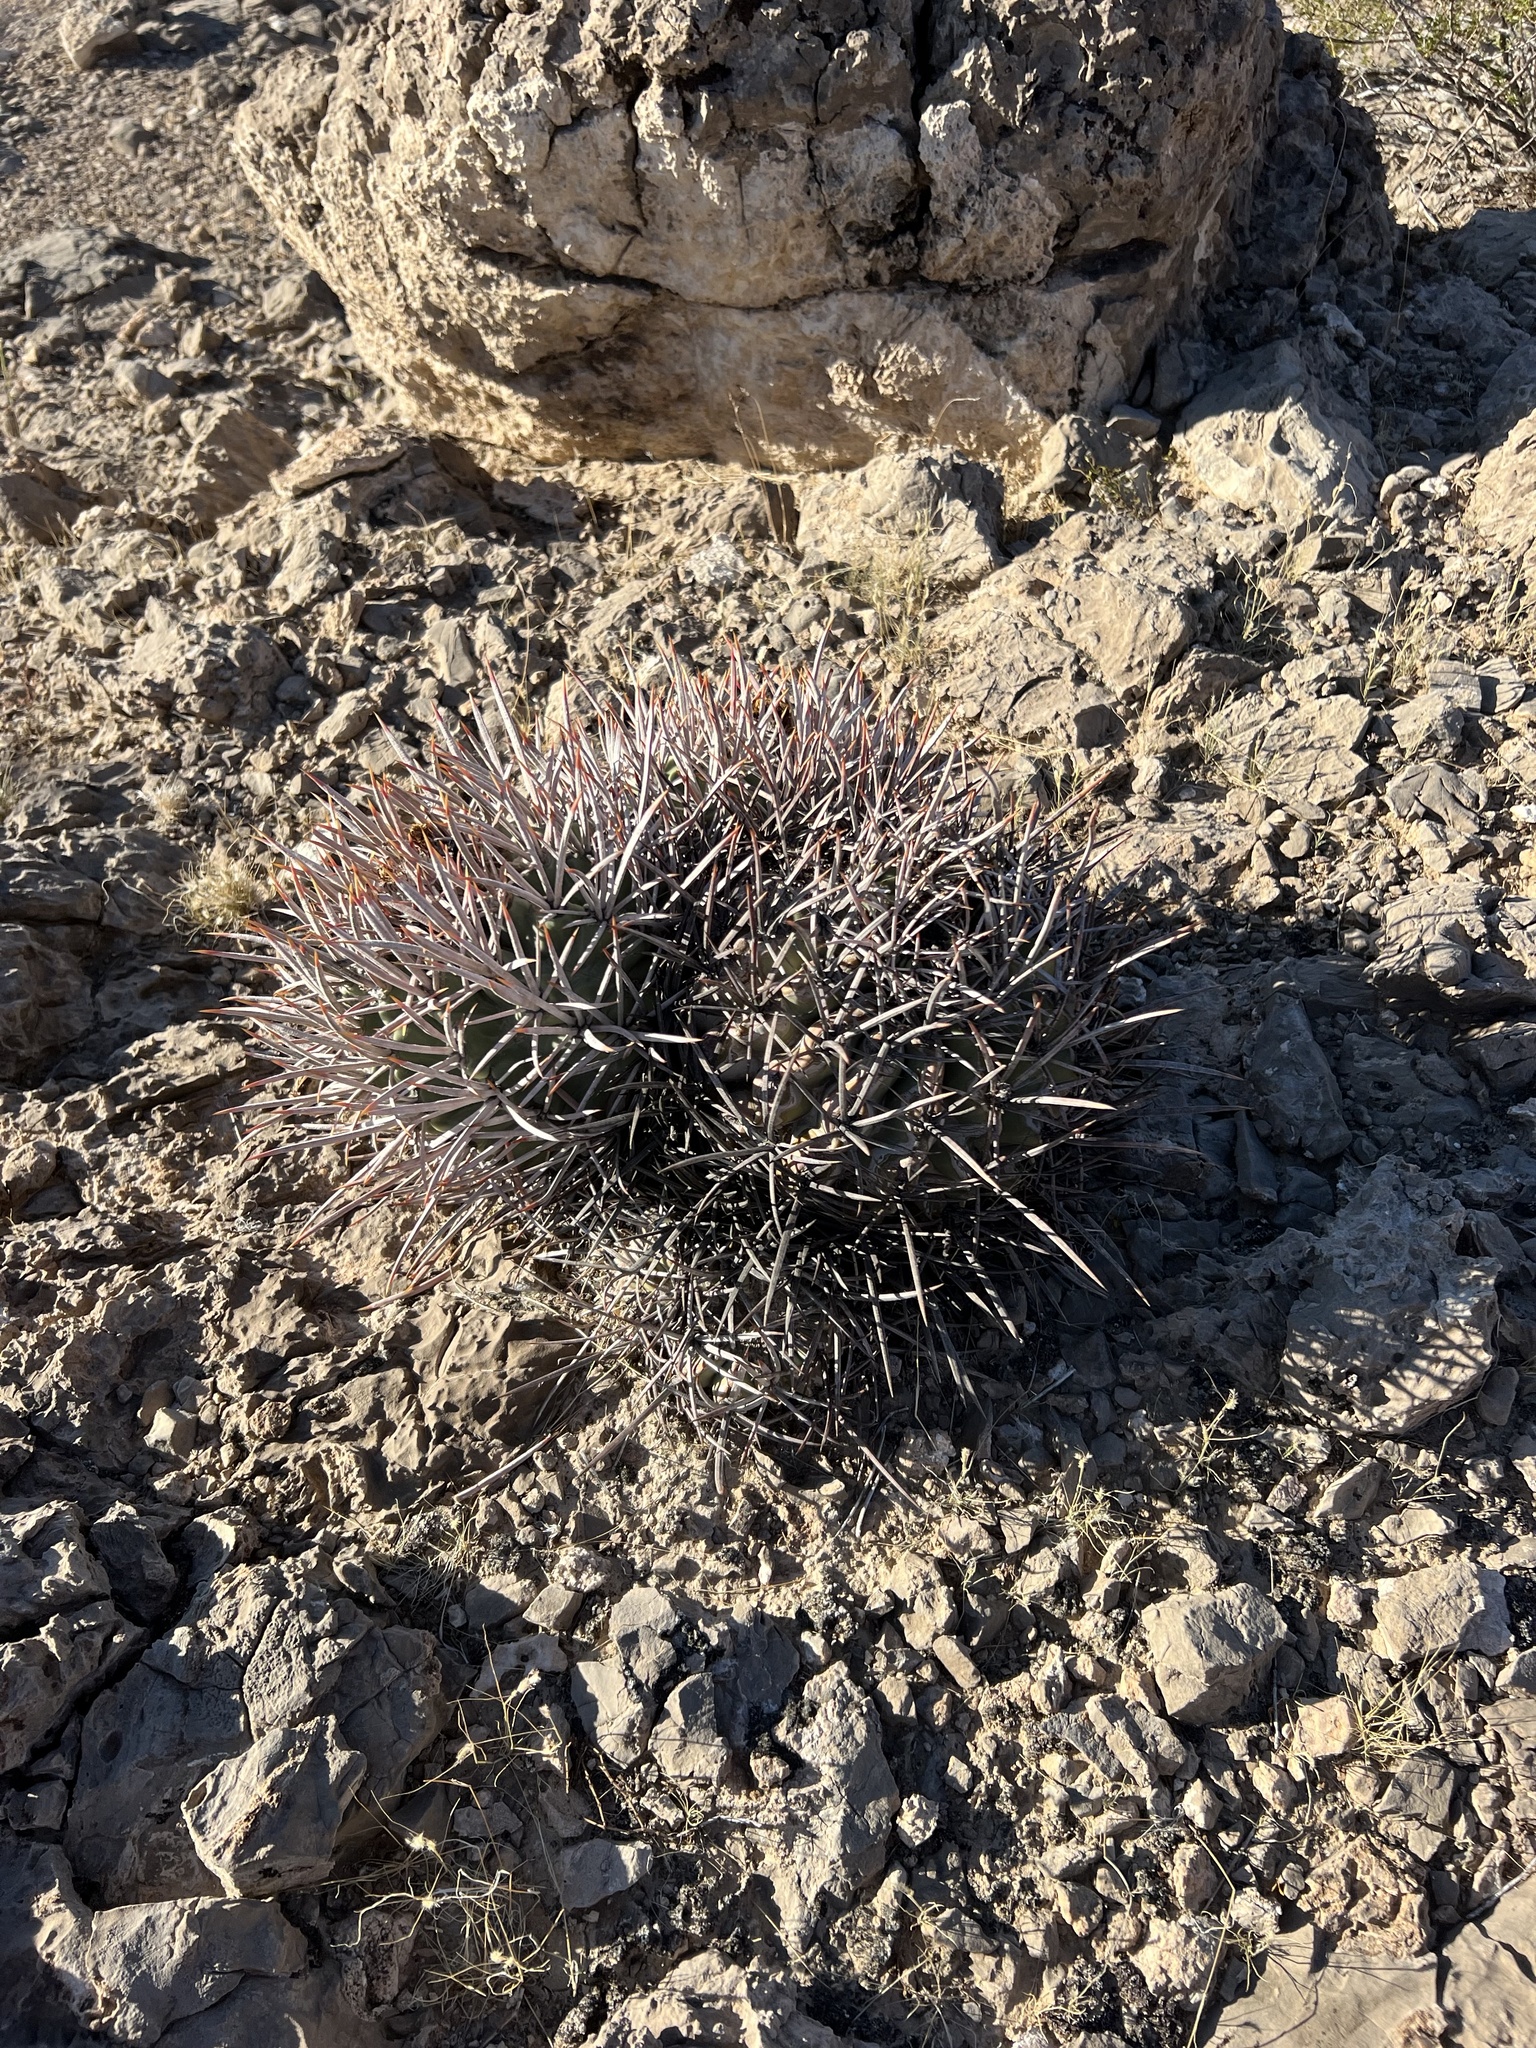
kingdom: Plantae
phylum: Tracheophyta
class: Magnoliopsida
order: Caryophyllales
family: Cactaceae
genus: Echinocactus
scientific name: Echinocactus polycephalus
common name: Cottontop cactus
